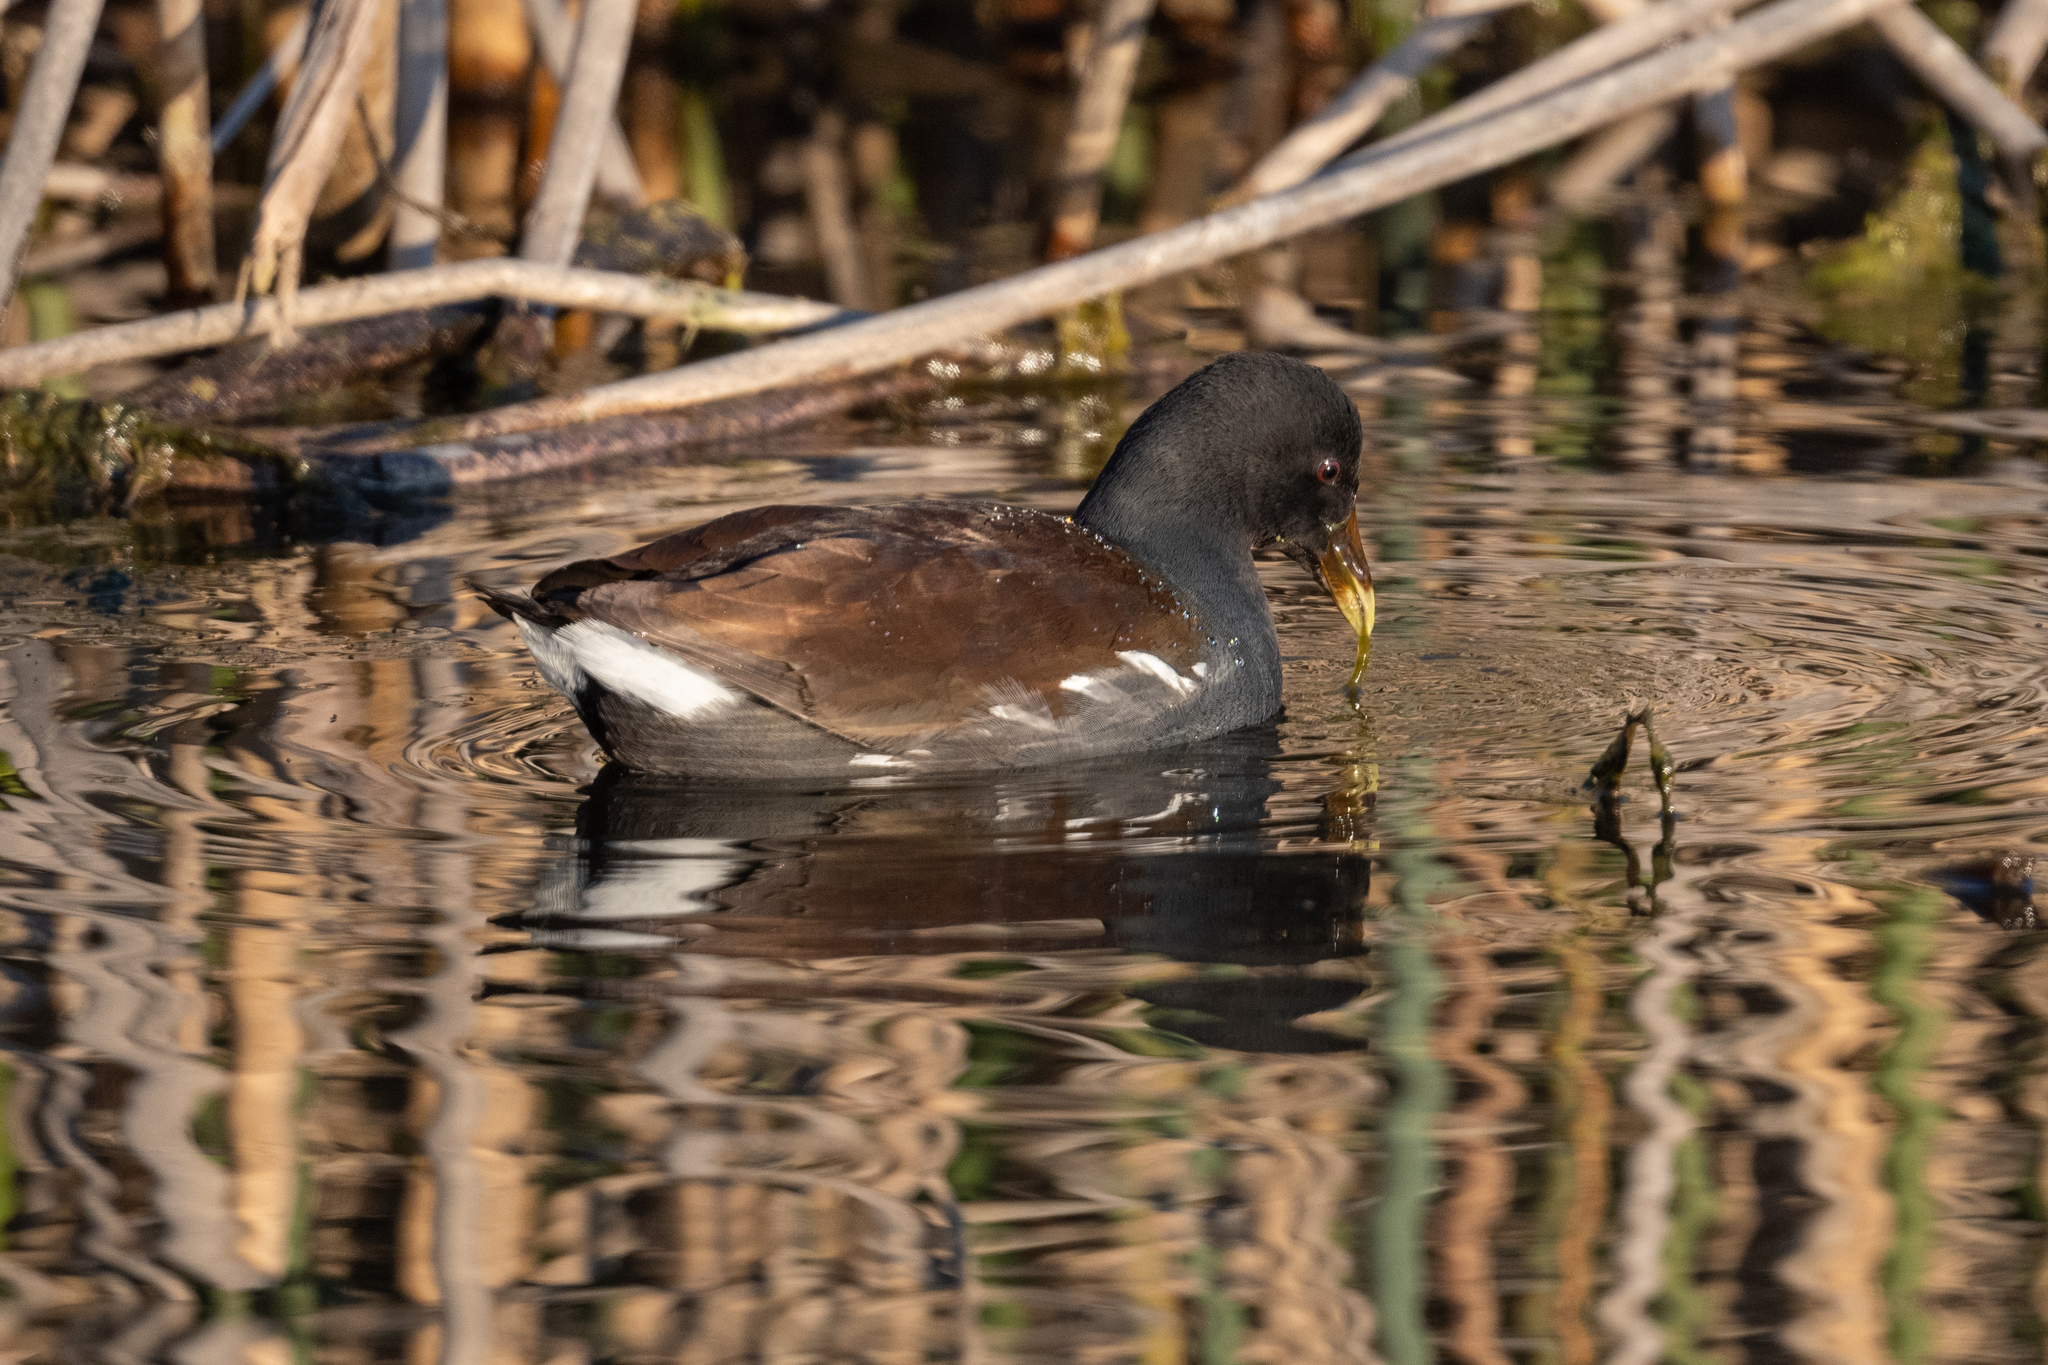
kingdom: Animalia
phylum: Chordata
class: Aves
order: Gruiformes
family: Rallidae
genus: Gallinula
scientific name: Gallinula chloropus
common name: Common moorhen
